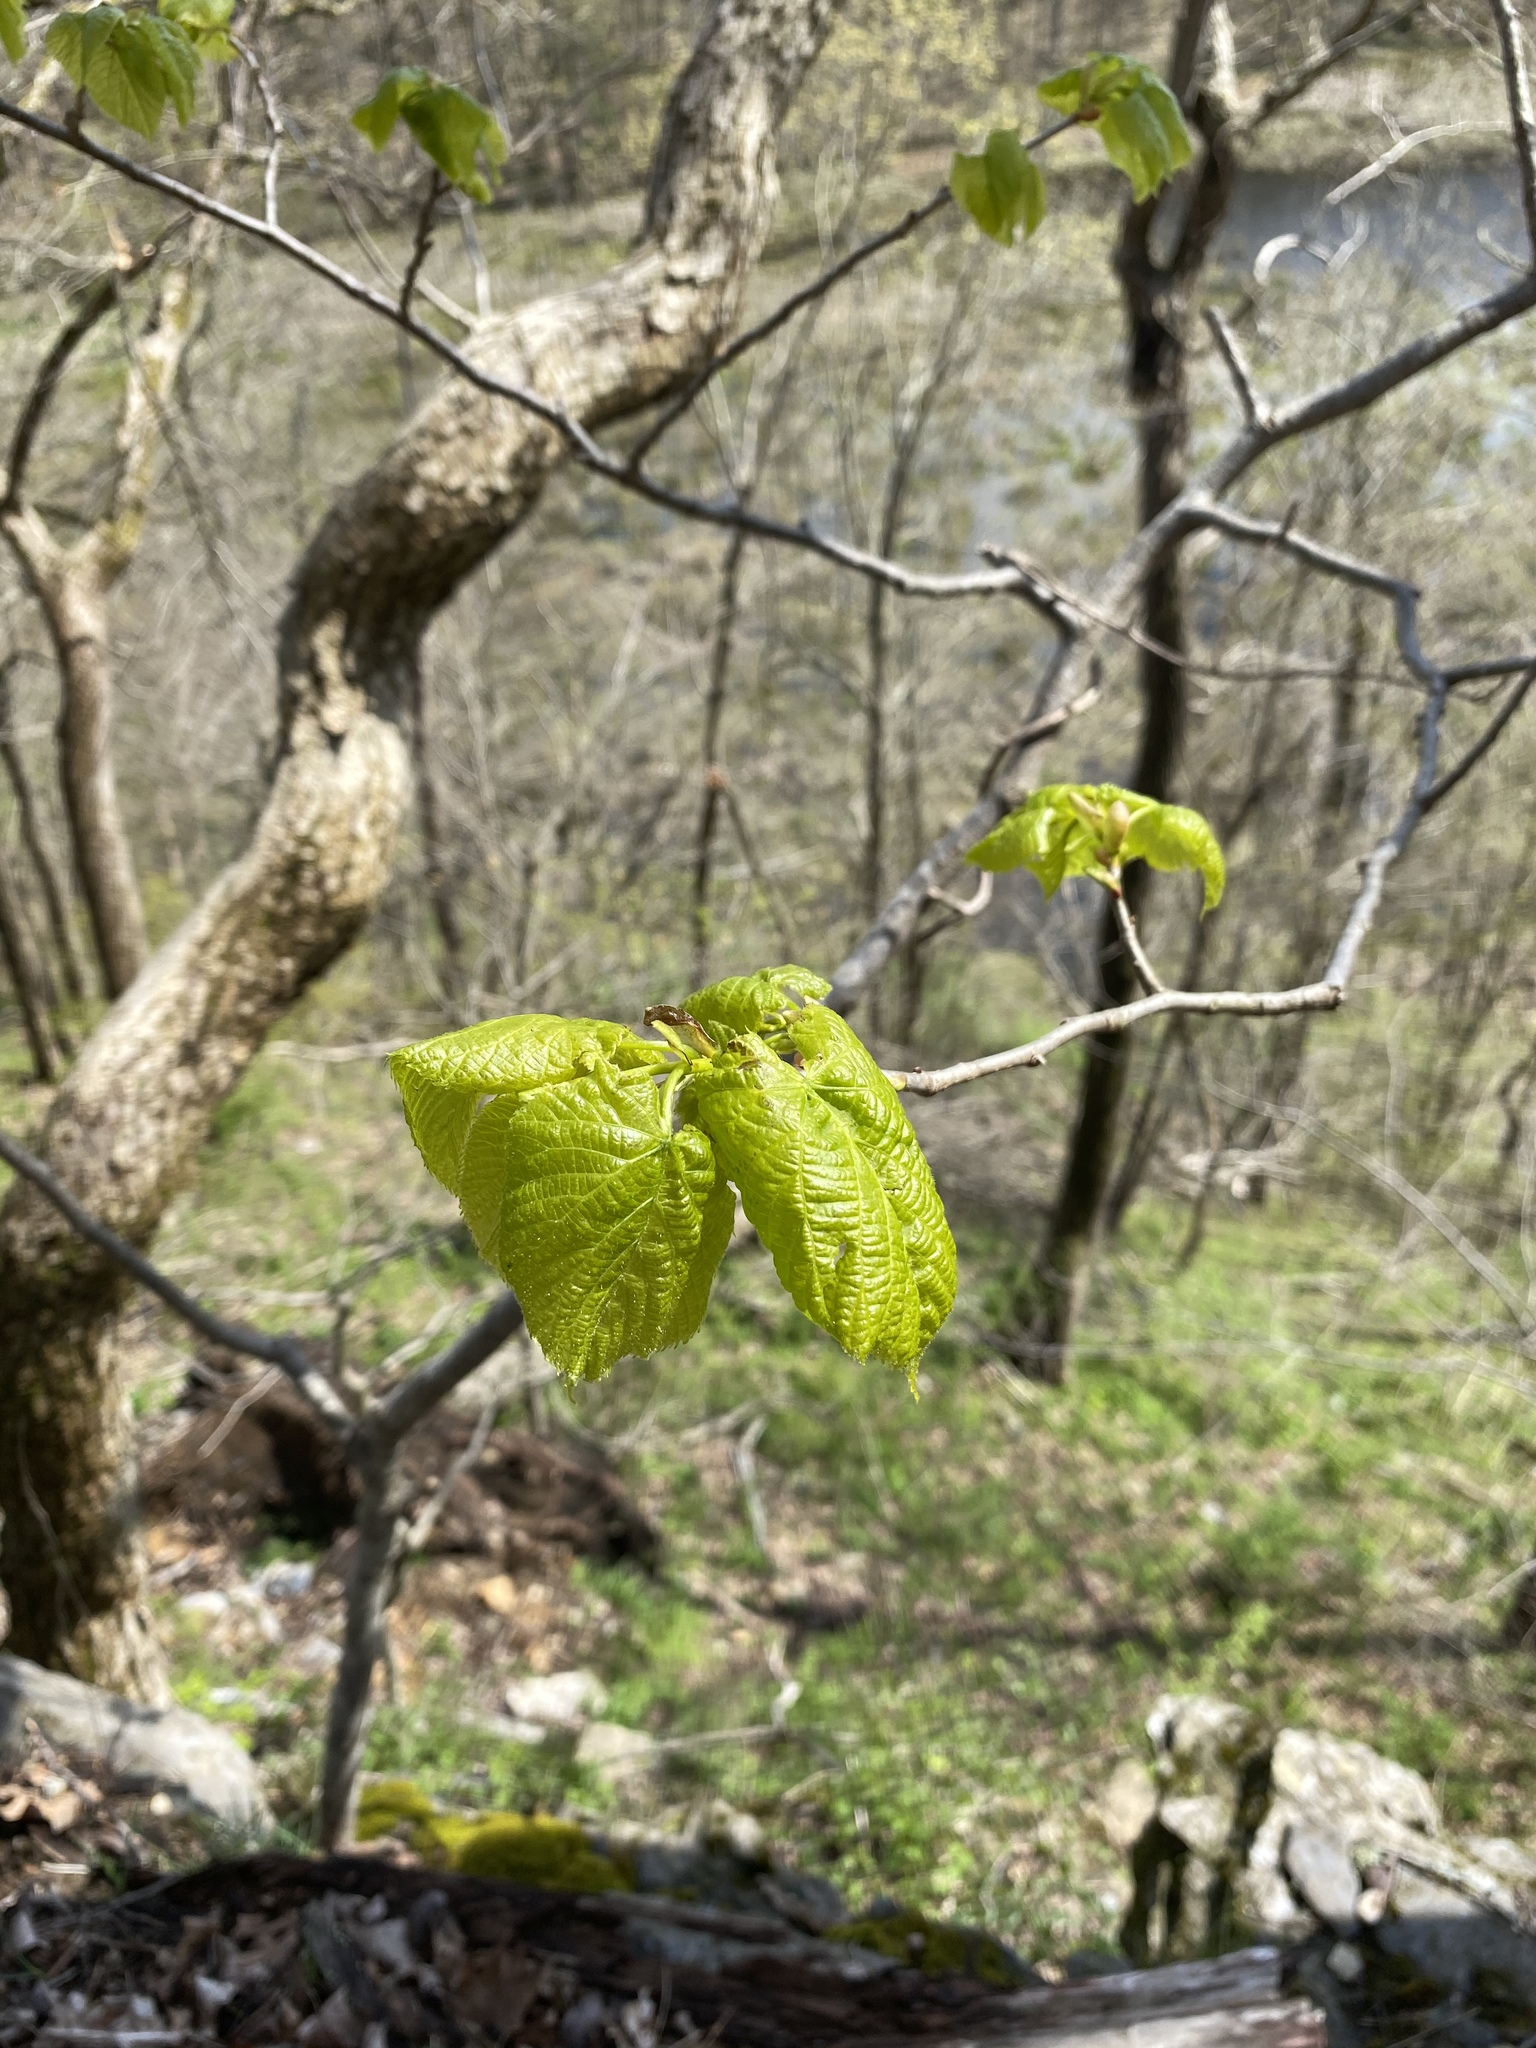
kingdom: Plantae
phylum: Tracheophyta
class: Magnoliopsida
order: Malvales
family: Malvaceae
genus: Tilia
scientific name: Tilia americana
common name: Basswood
